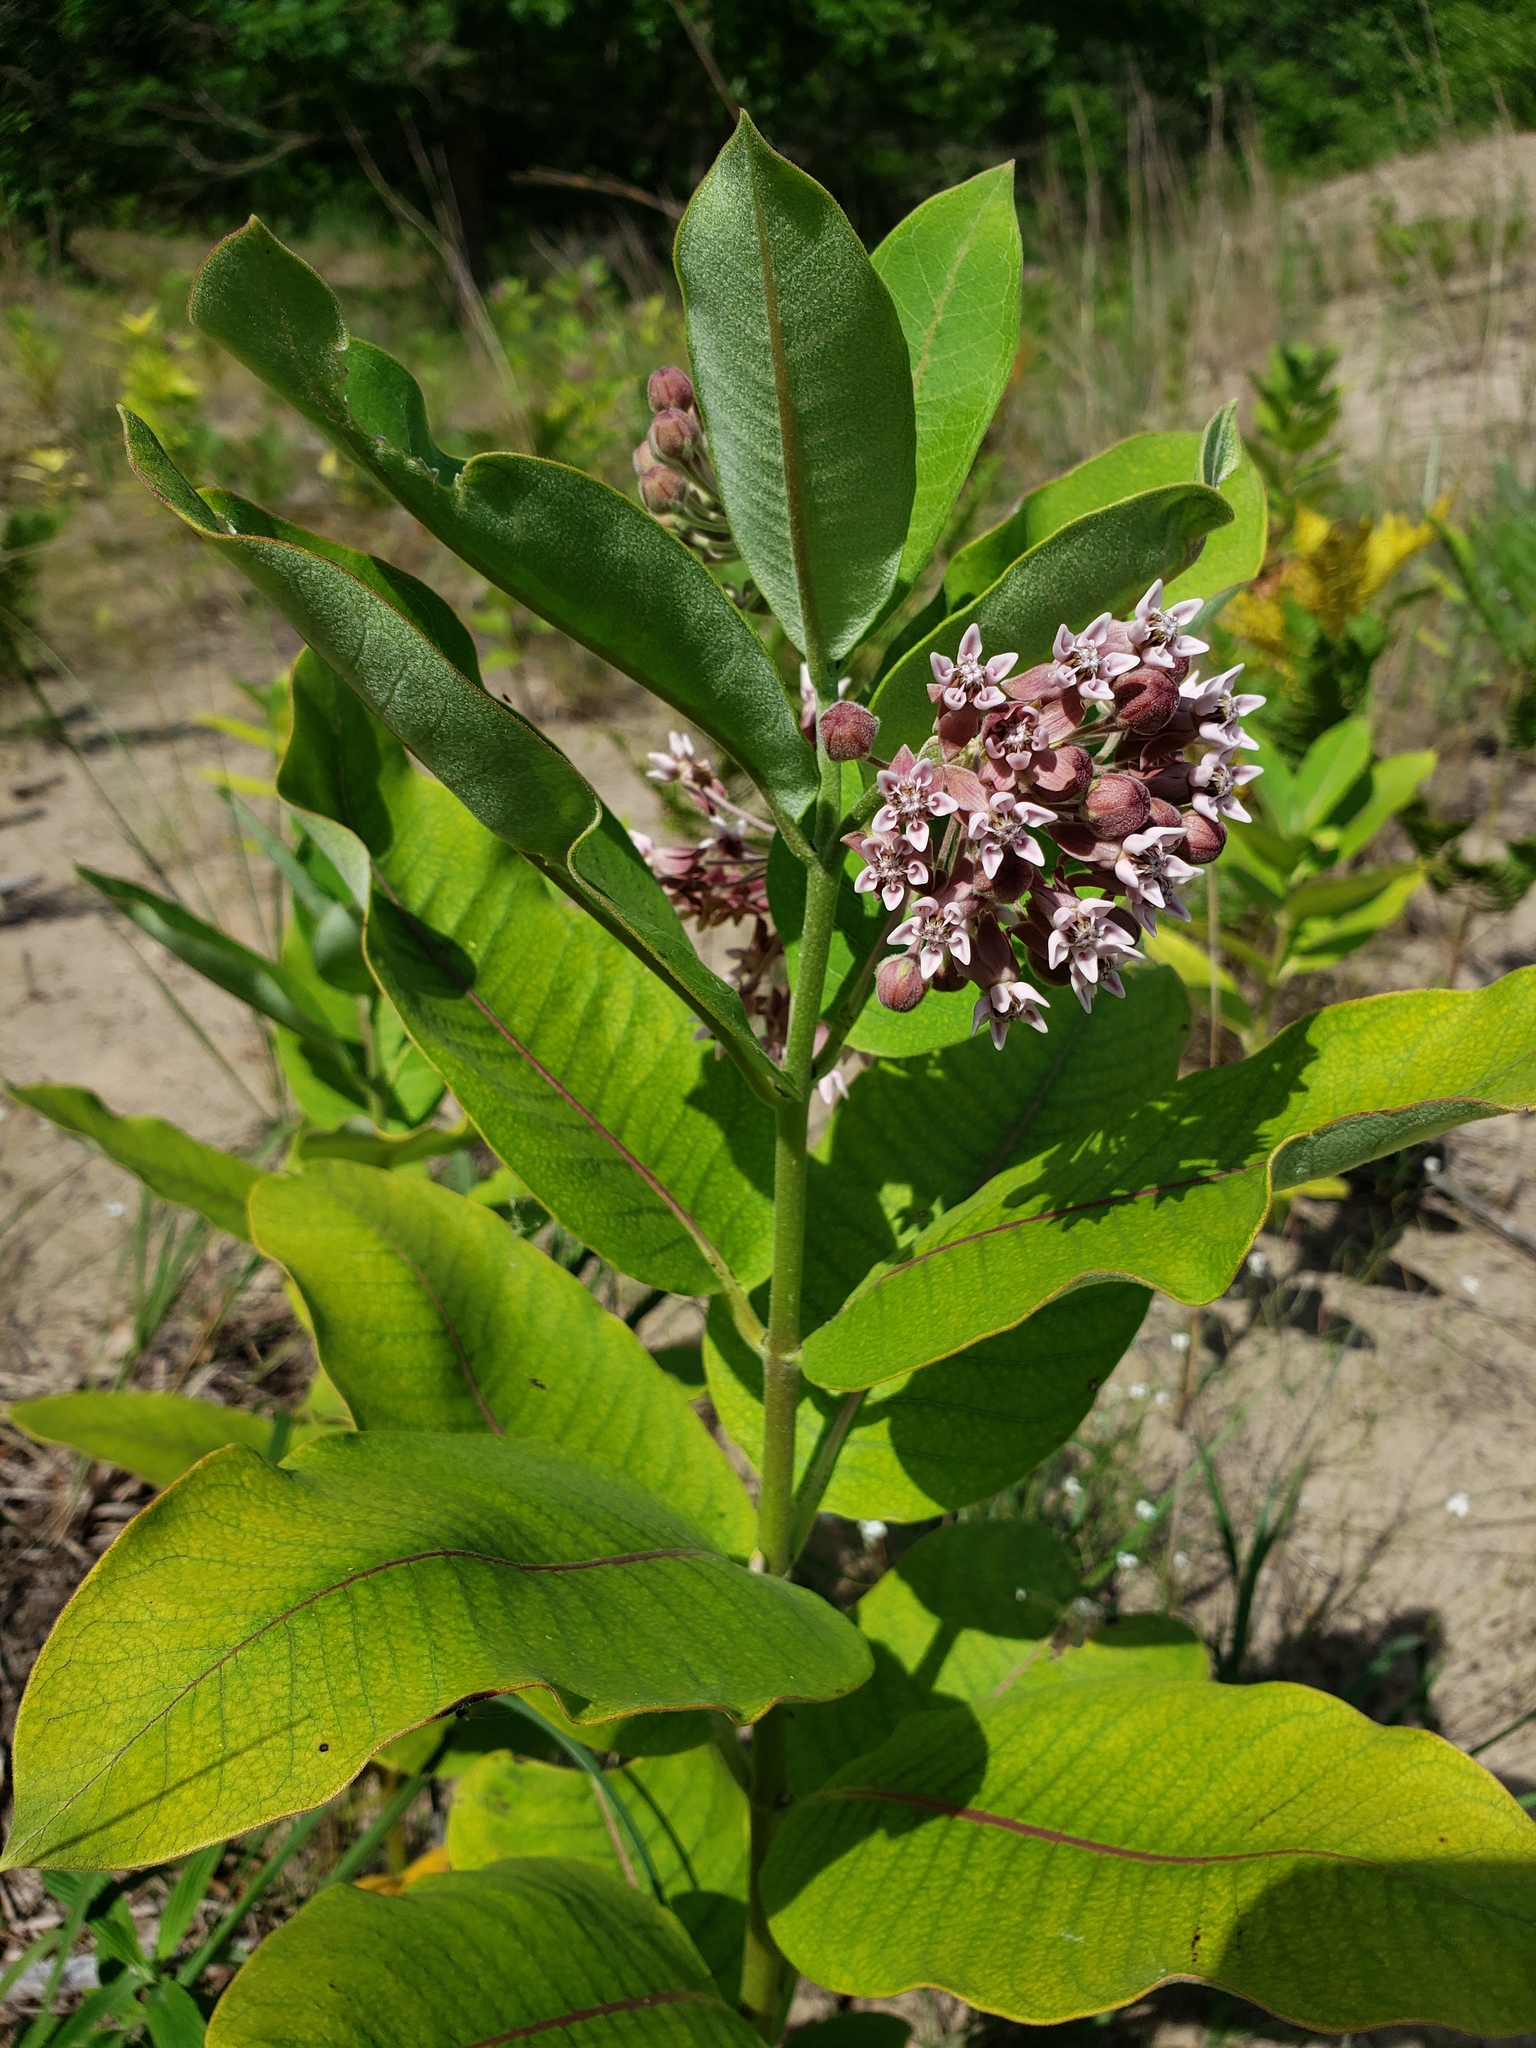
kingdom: Plantae
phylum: Tracheophyta
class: Magnoliopsida
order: Gentianales
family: Apocynaceae
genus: Asclepias
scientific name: Asclepias syriaca
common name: Common milkweed
